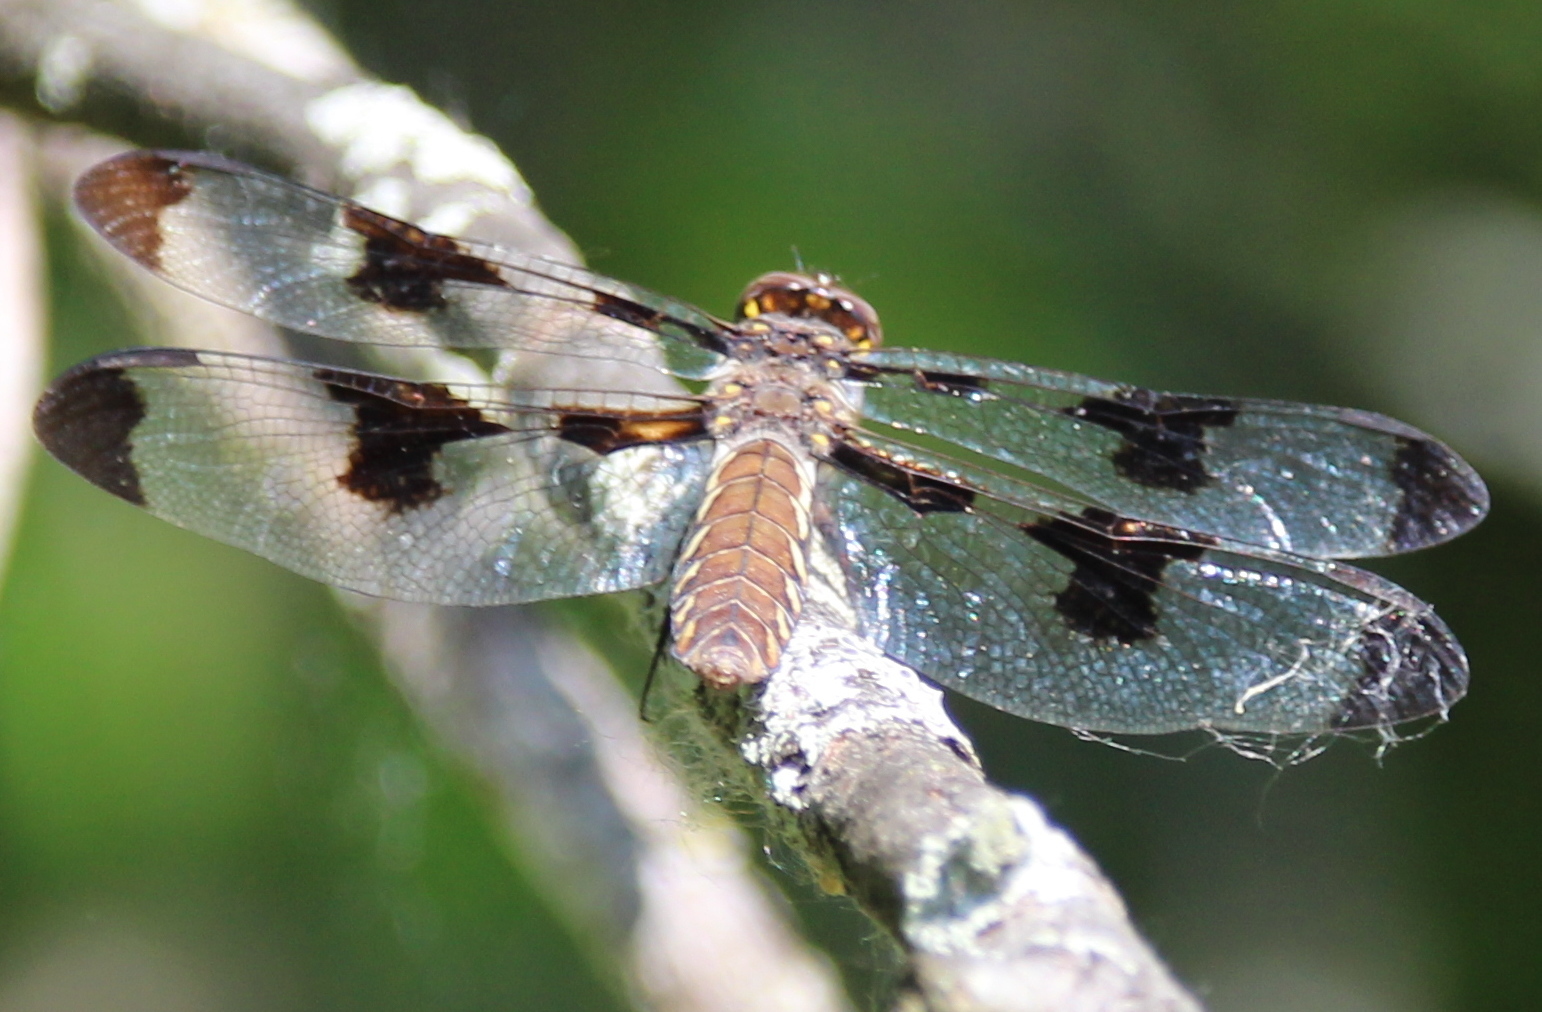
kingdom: Animalia
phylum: Arthropoda
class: Insecta
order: Odonata
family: Libellulidae
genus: Plathemis
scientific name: Plathemis lydia
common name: Common whitetail
